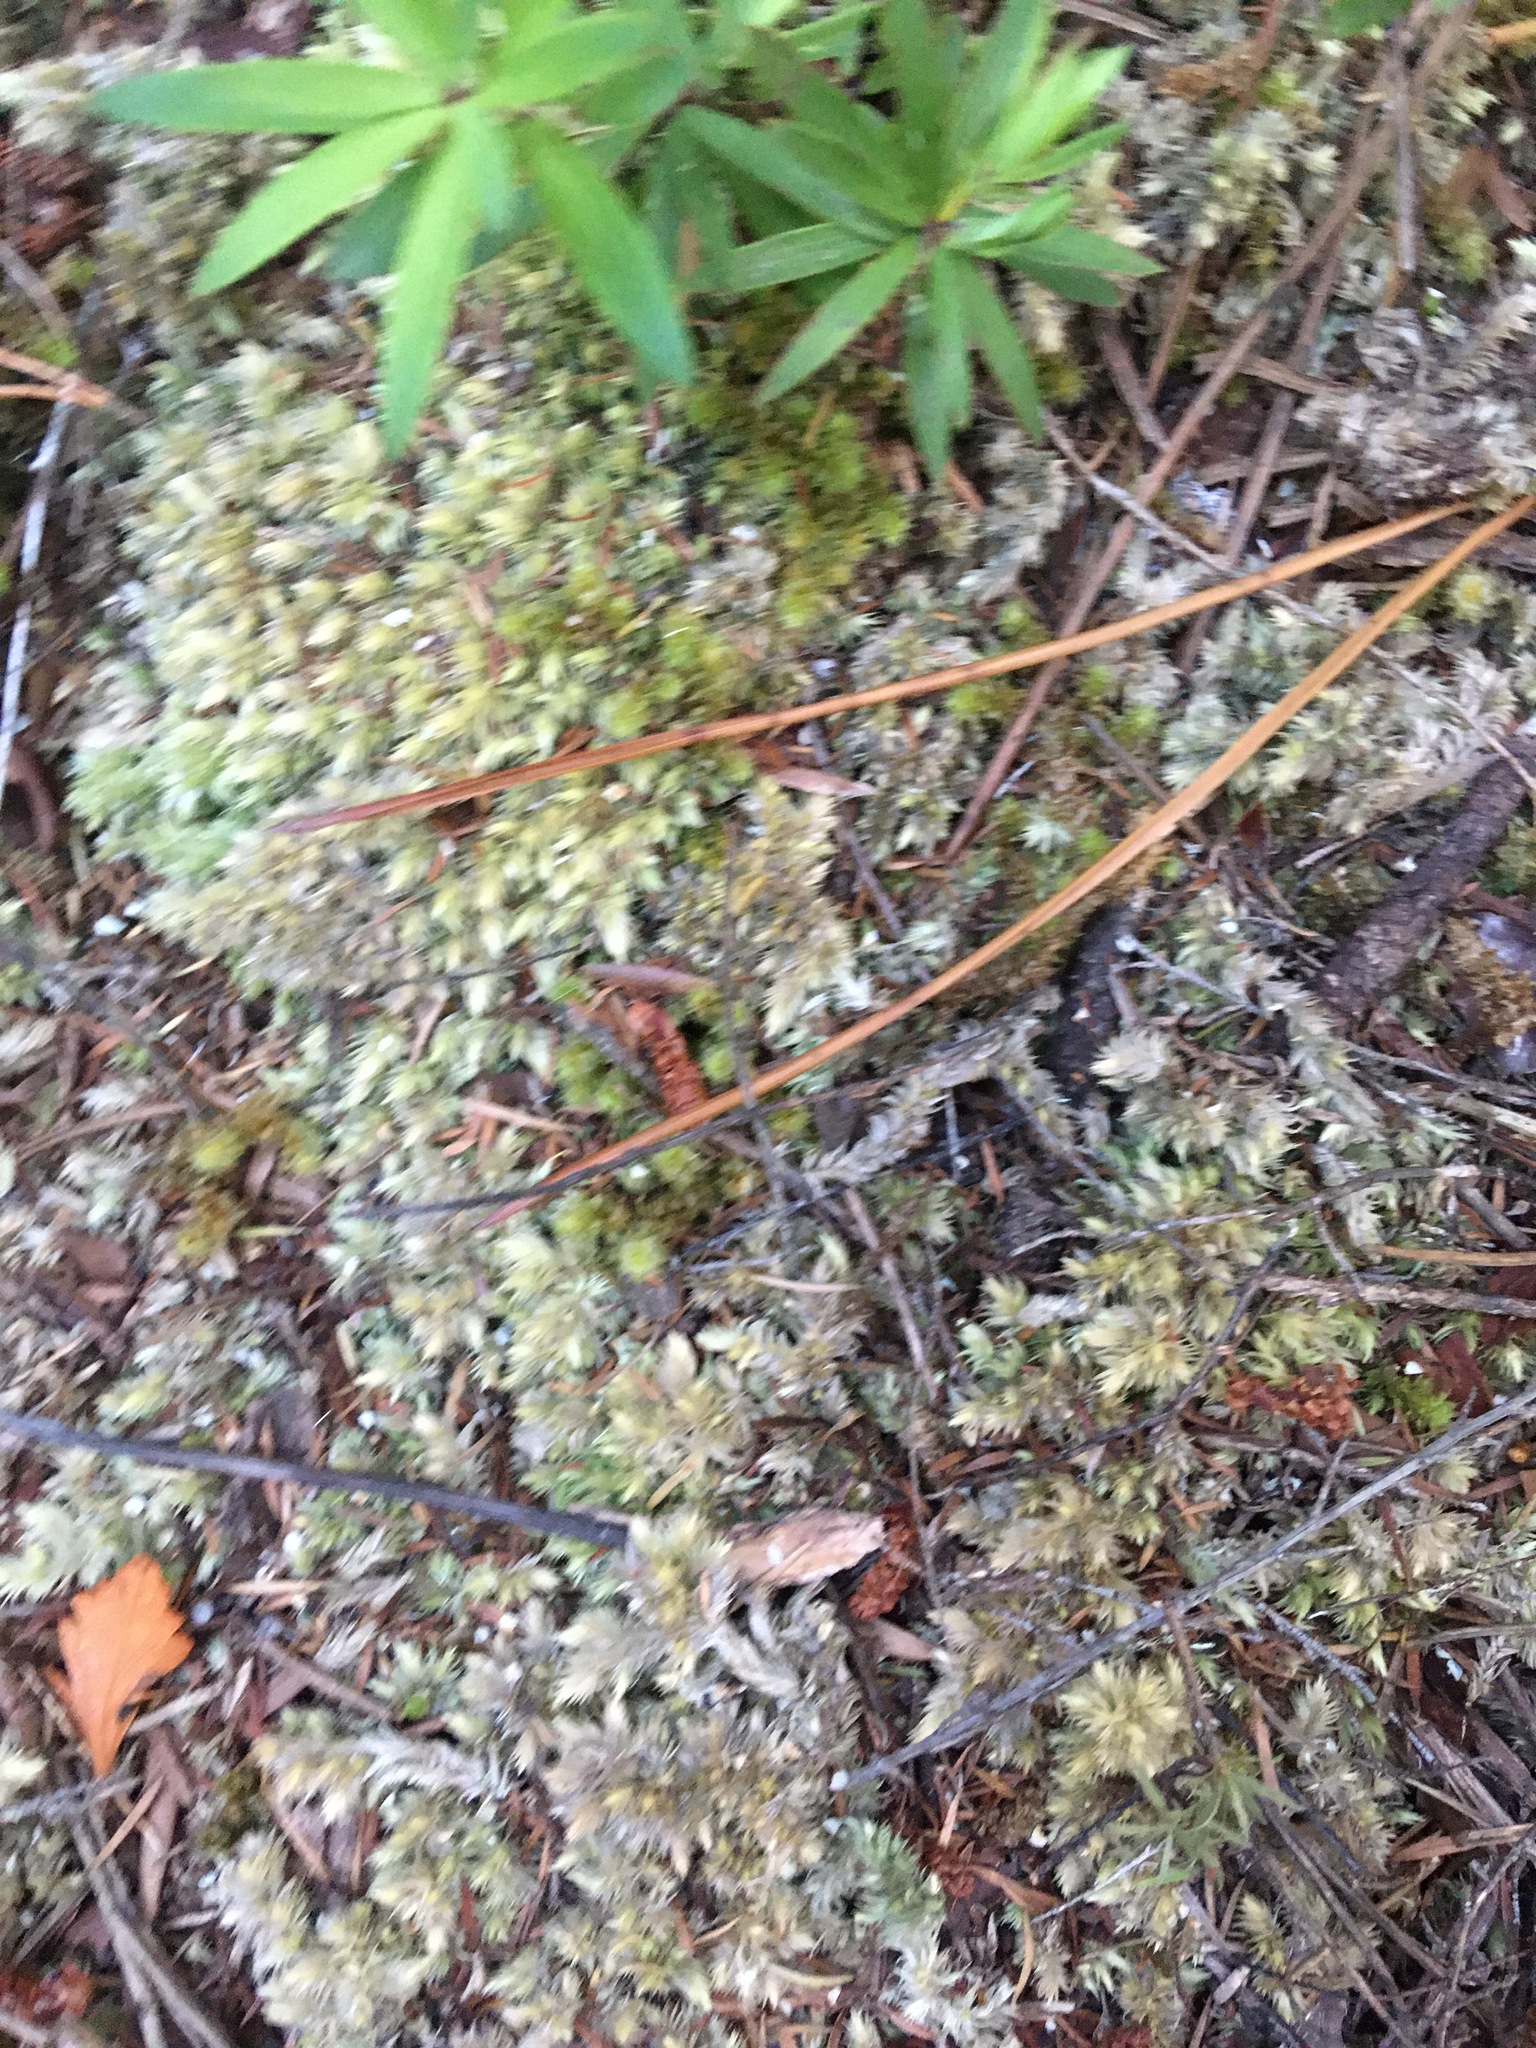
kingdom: Plantae
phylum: Tracheophyta
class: Magnoliopsida
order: Ericales
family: Ericaceae
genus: Leucopogon
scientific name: Leucopogon fasciculatus
